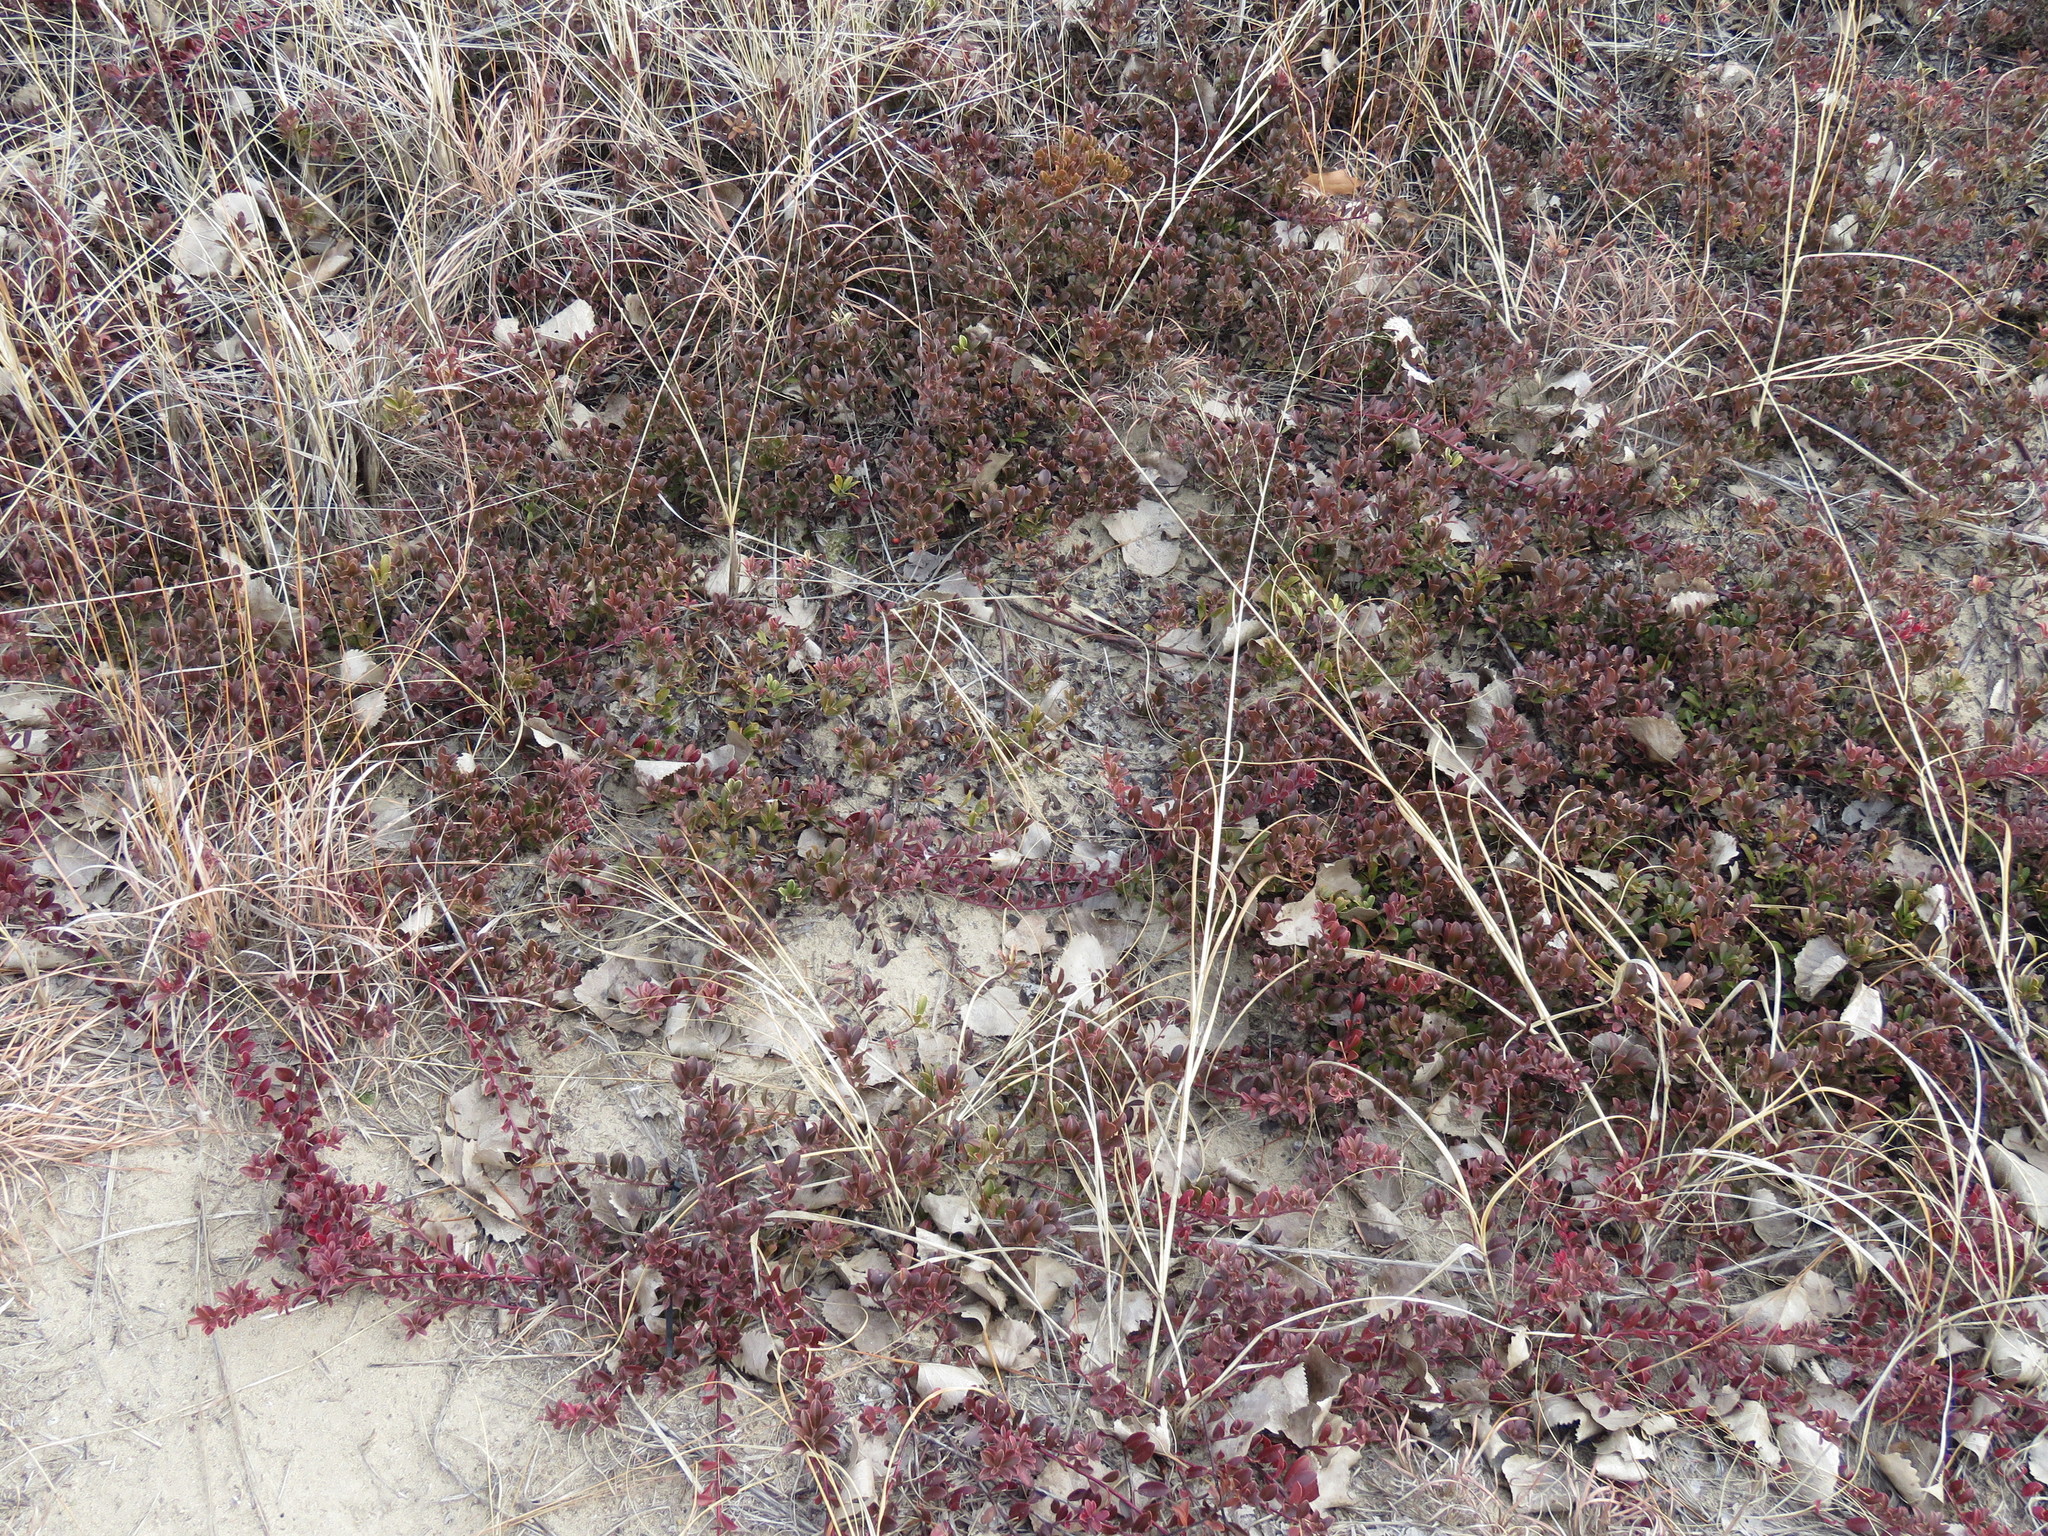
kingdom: Plantae
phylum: Tracheophyta
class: Magnoliopsida
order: Ericales
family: Ericaceae
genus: Arctostaphylos
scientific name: Arctostaphylos uva-ursi
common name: Bearberry
